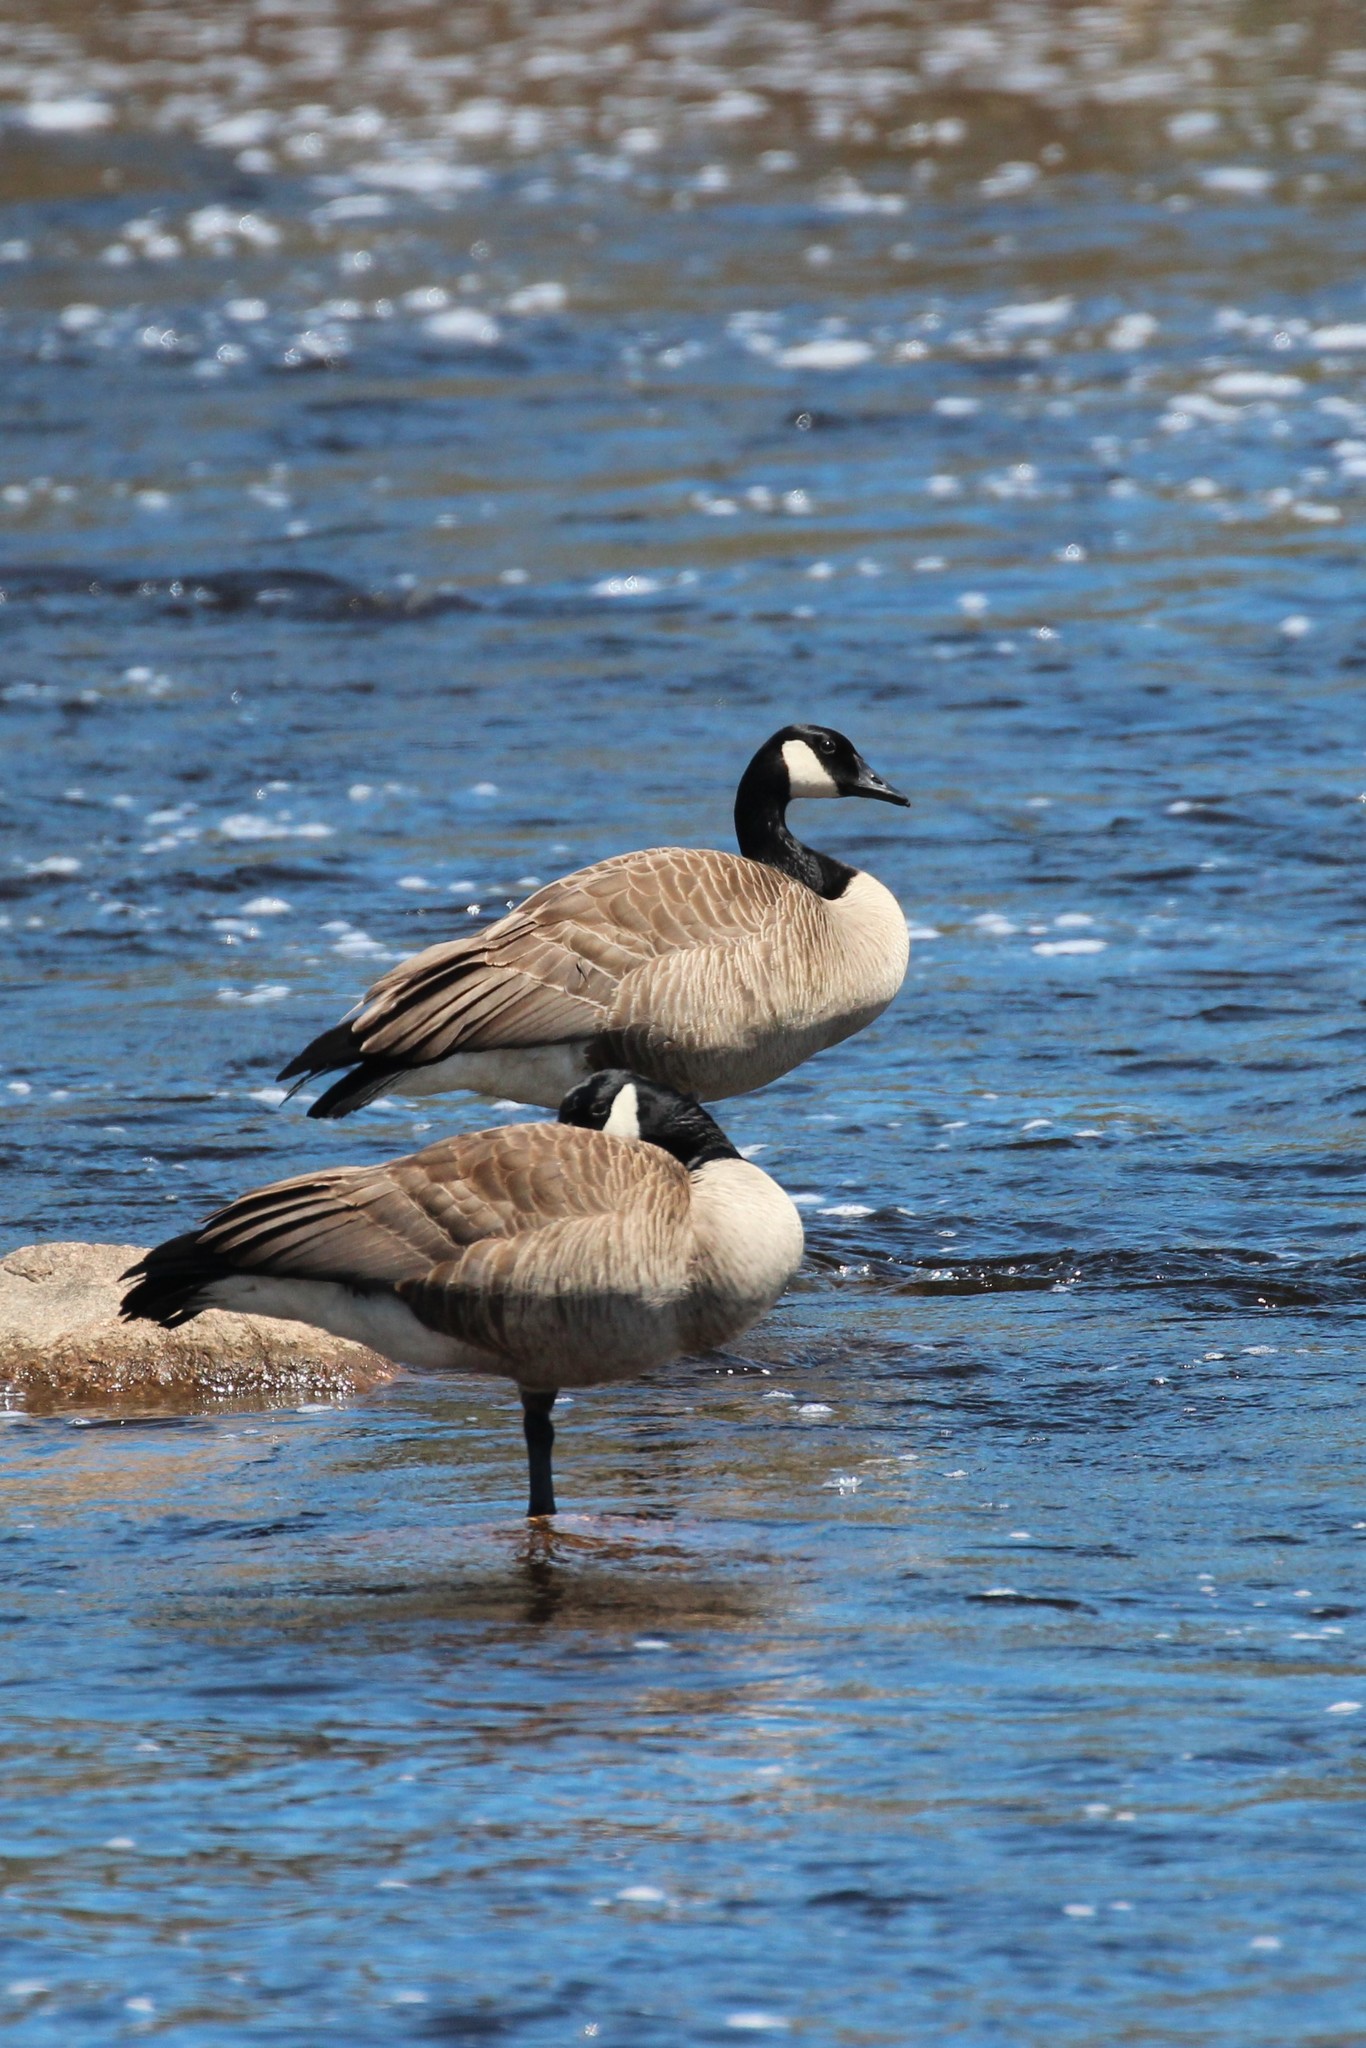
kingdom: Animalia
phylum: Chordata
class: Aves
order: Anseriformes
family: Anatidae
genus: Branta
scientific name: Branta canadensis
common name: Canada goose
